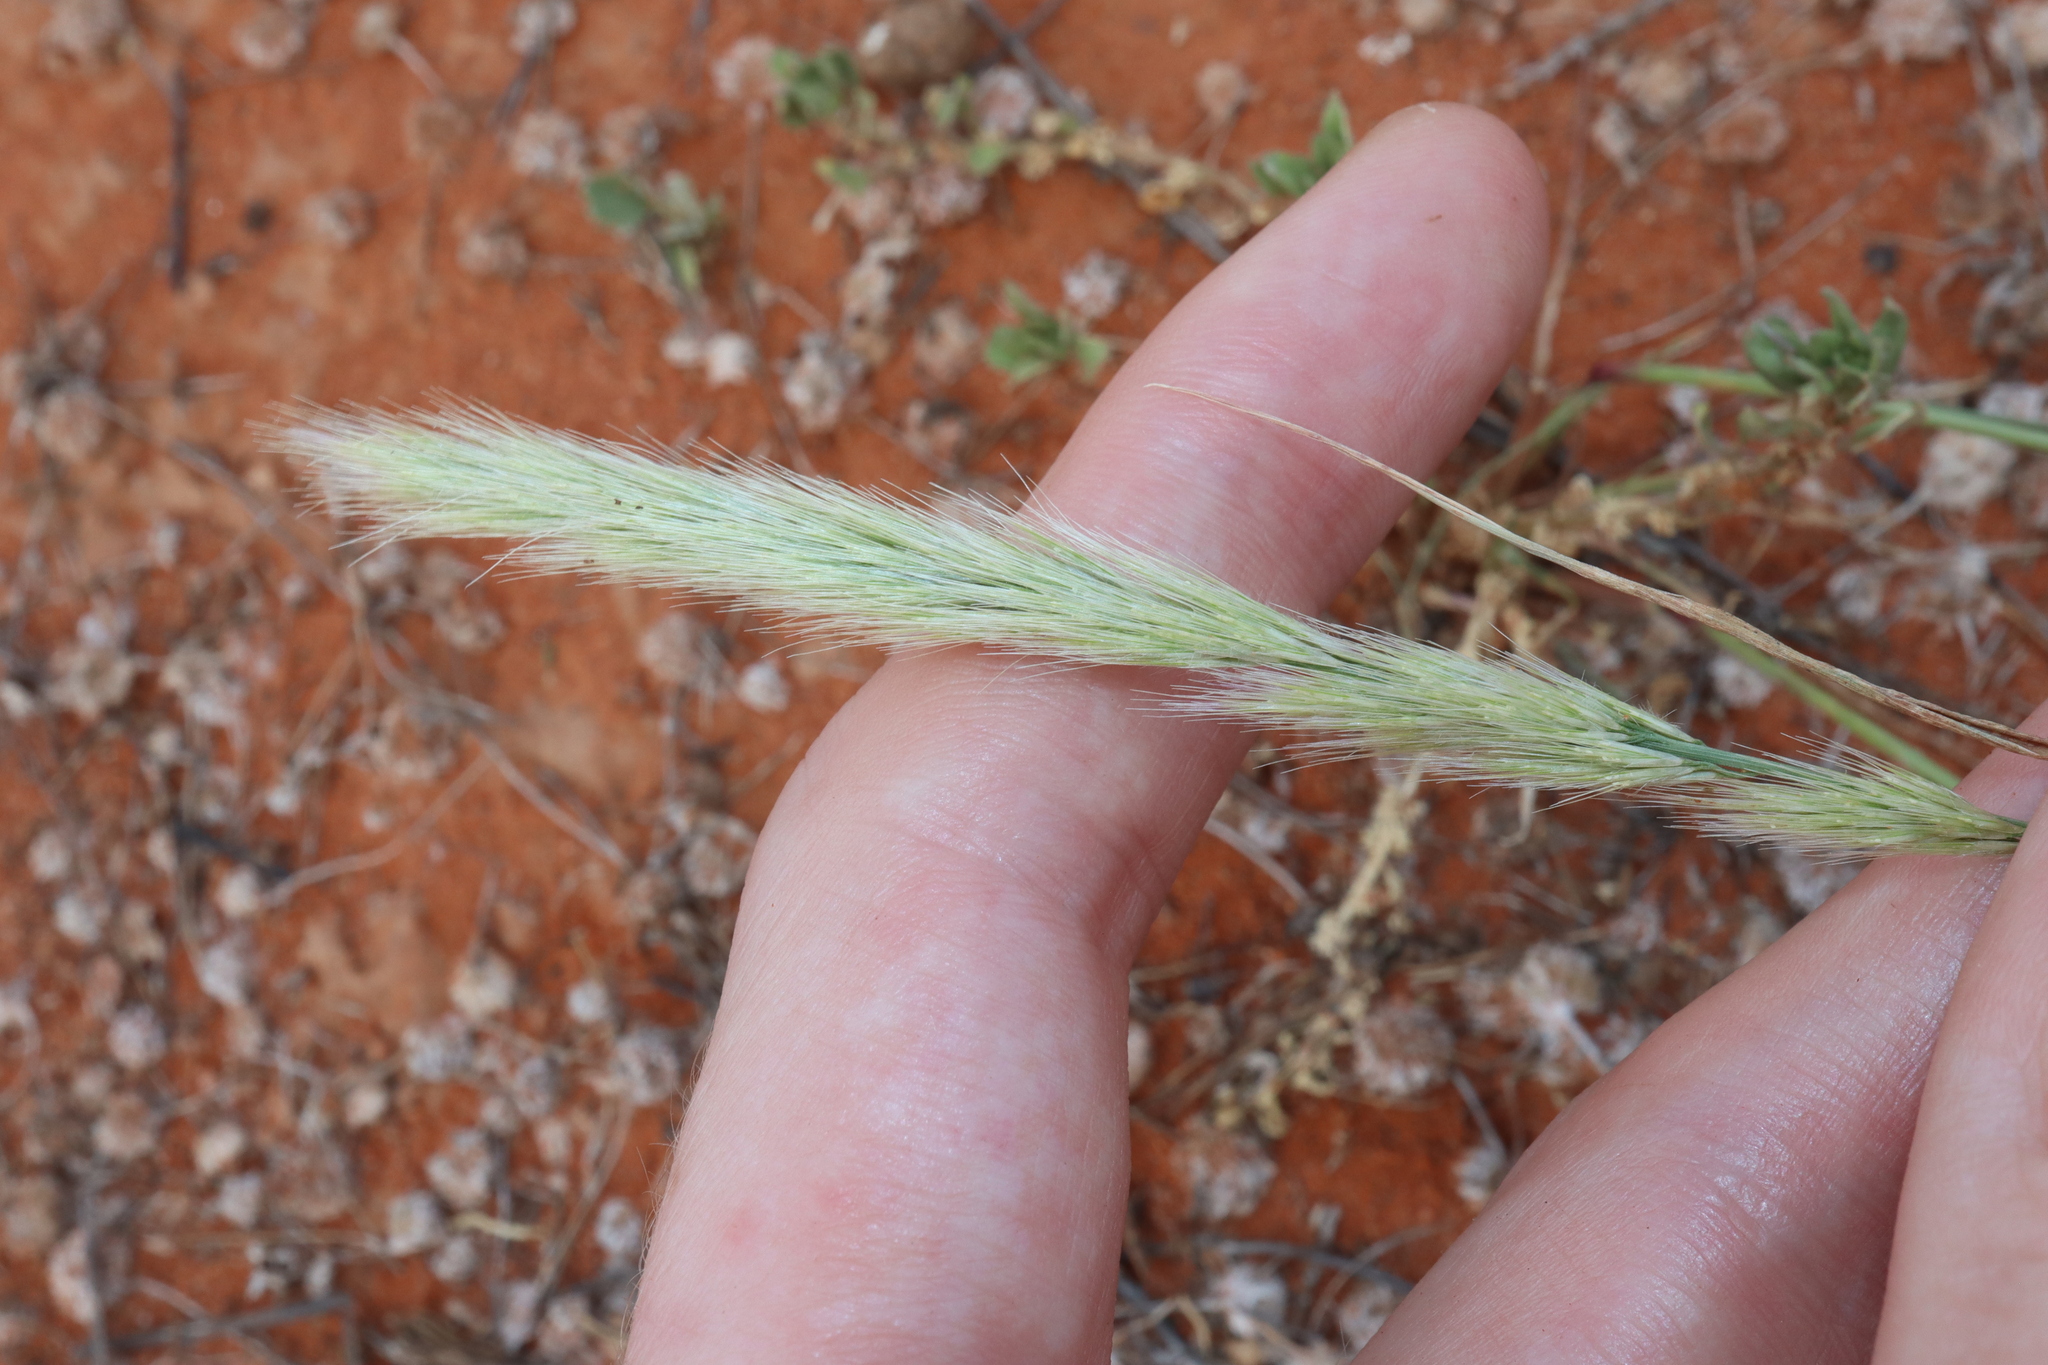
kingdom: Plantae
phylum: Tracheophyta
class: Liliopsida
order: Poales
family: Poaceae
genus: Triraphis
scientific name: Triraphis mollis
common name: Purple needlegrass
